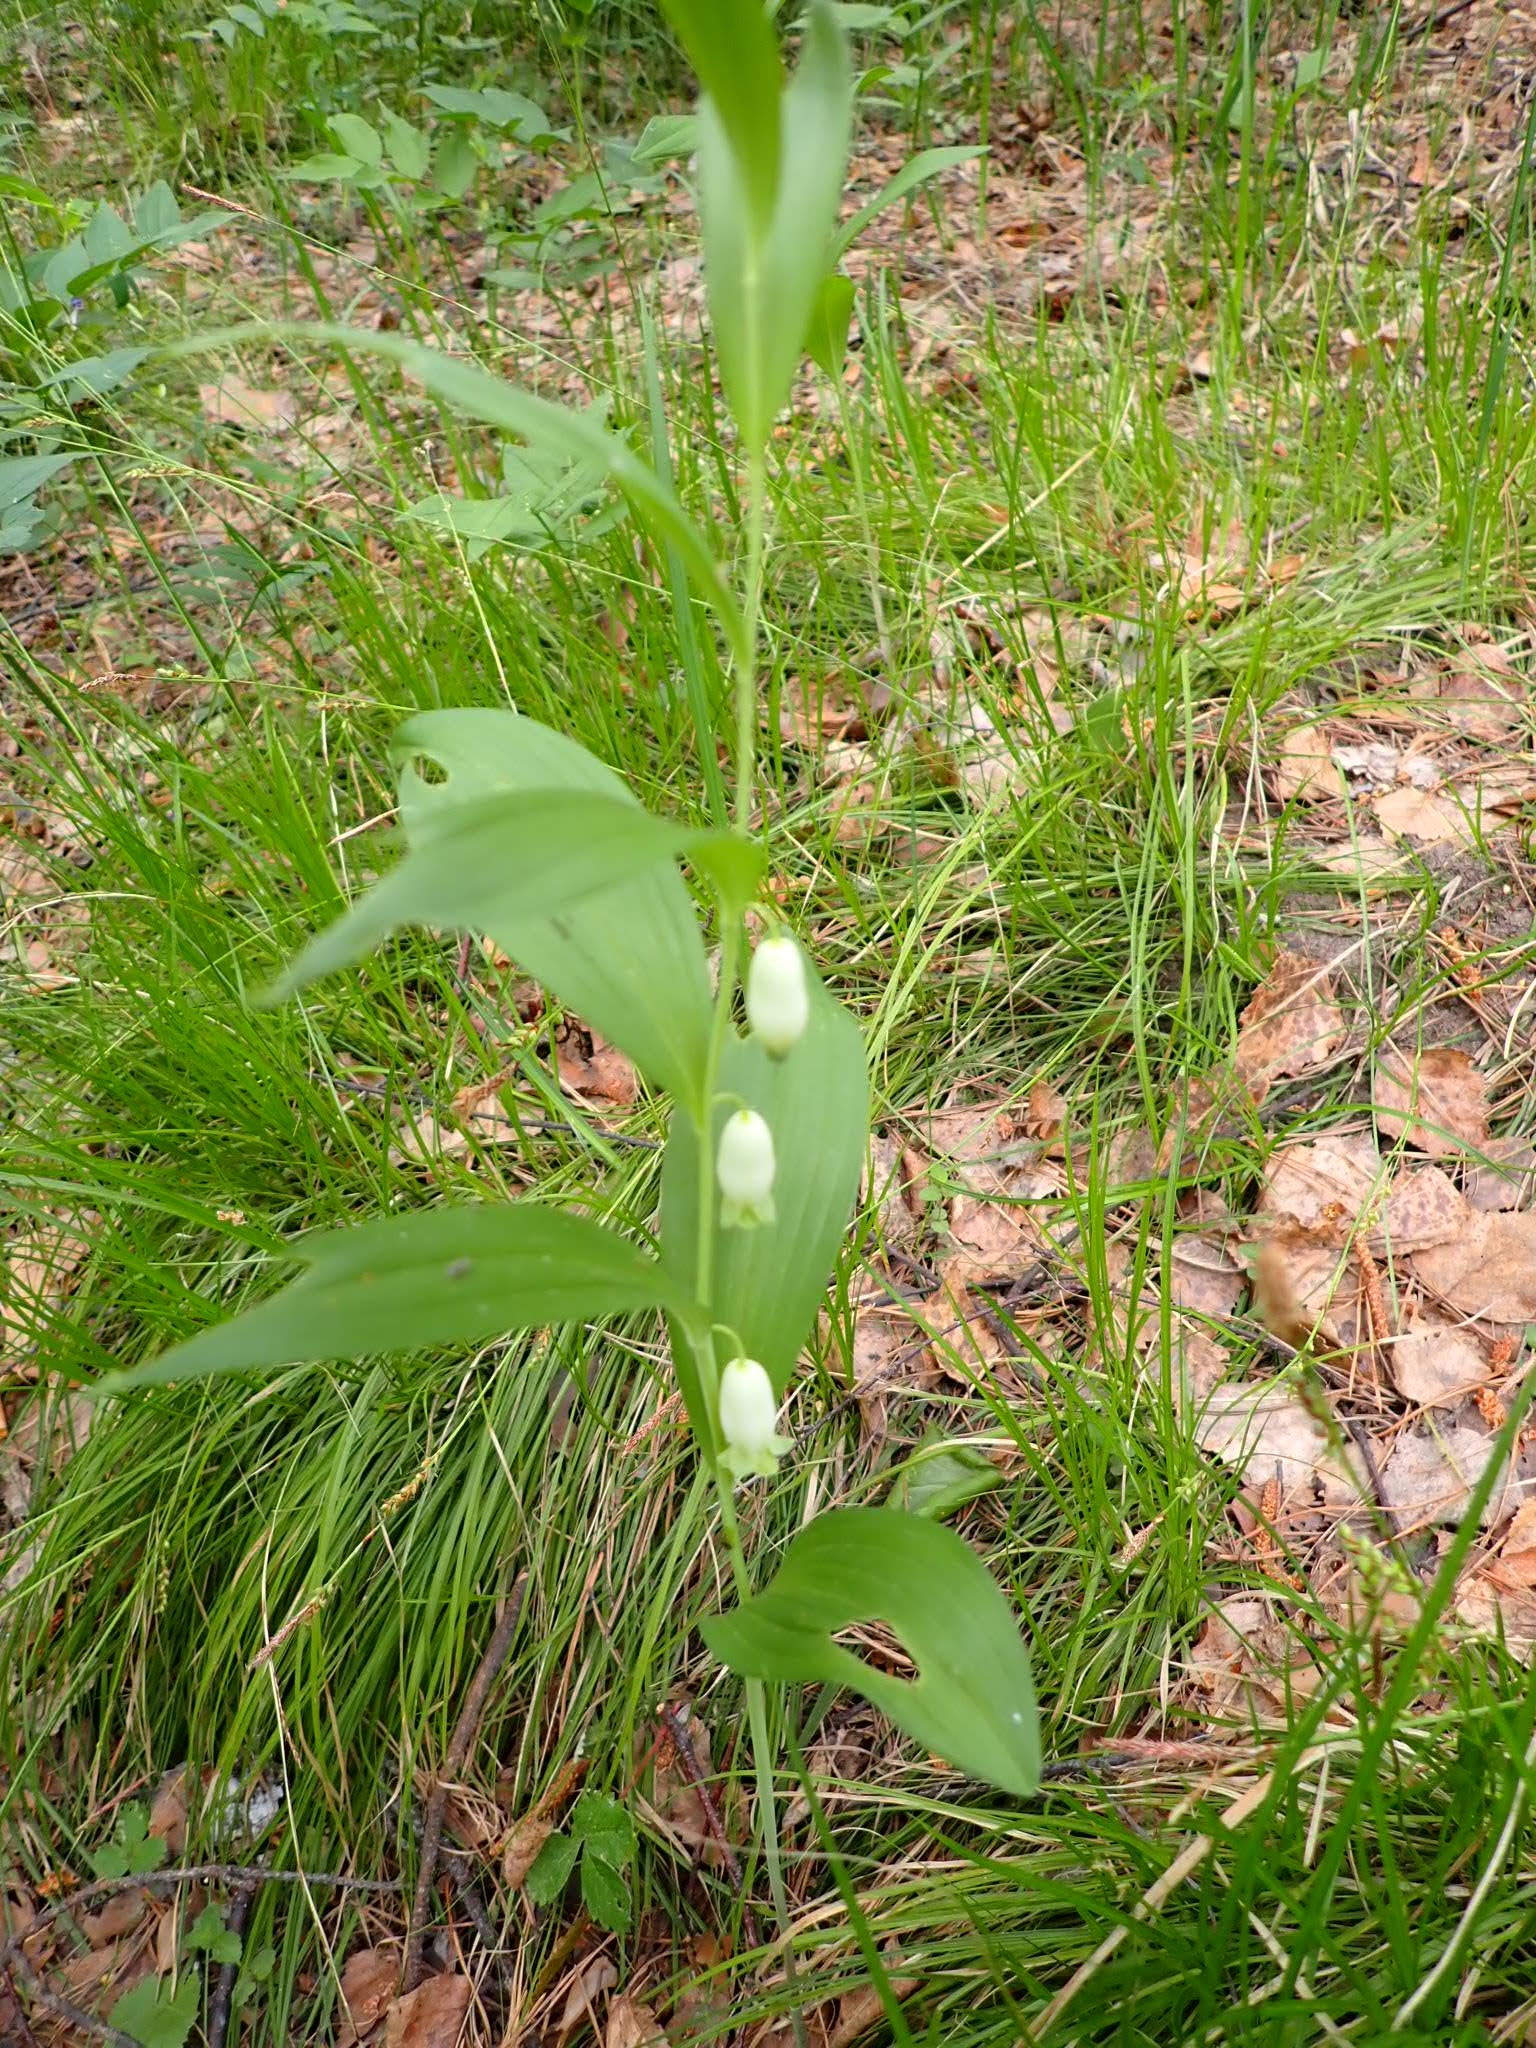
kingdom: Plantae
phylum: Tracheophyta
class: Liliopsida
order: Asparagales
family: Asparagaceae
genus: Polygonatum
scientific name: Polygonatum odoratum
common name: Angular solomon's-seal
